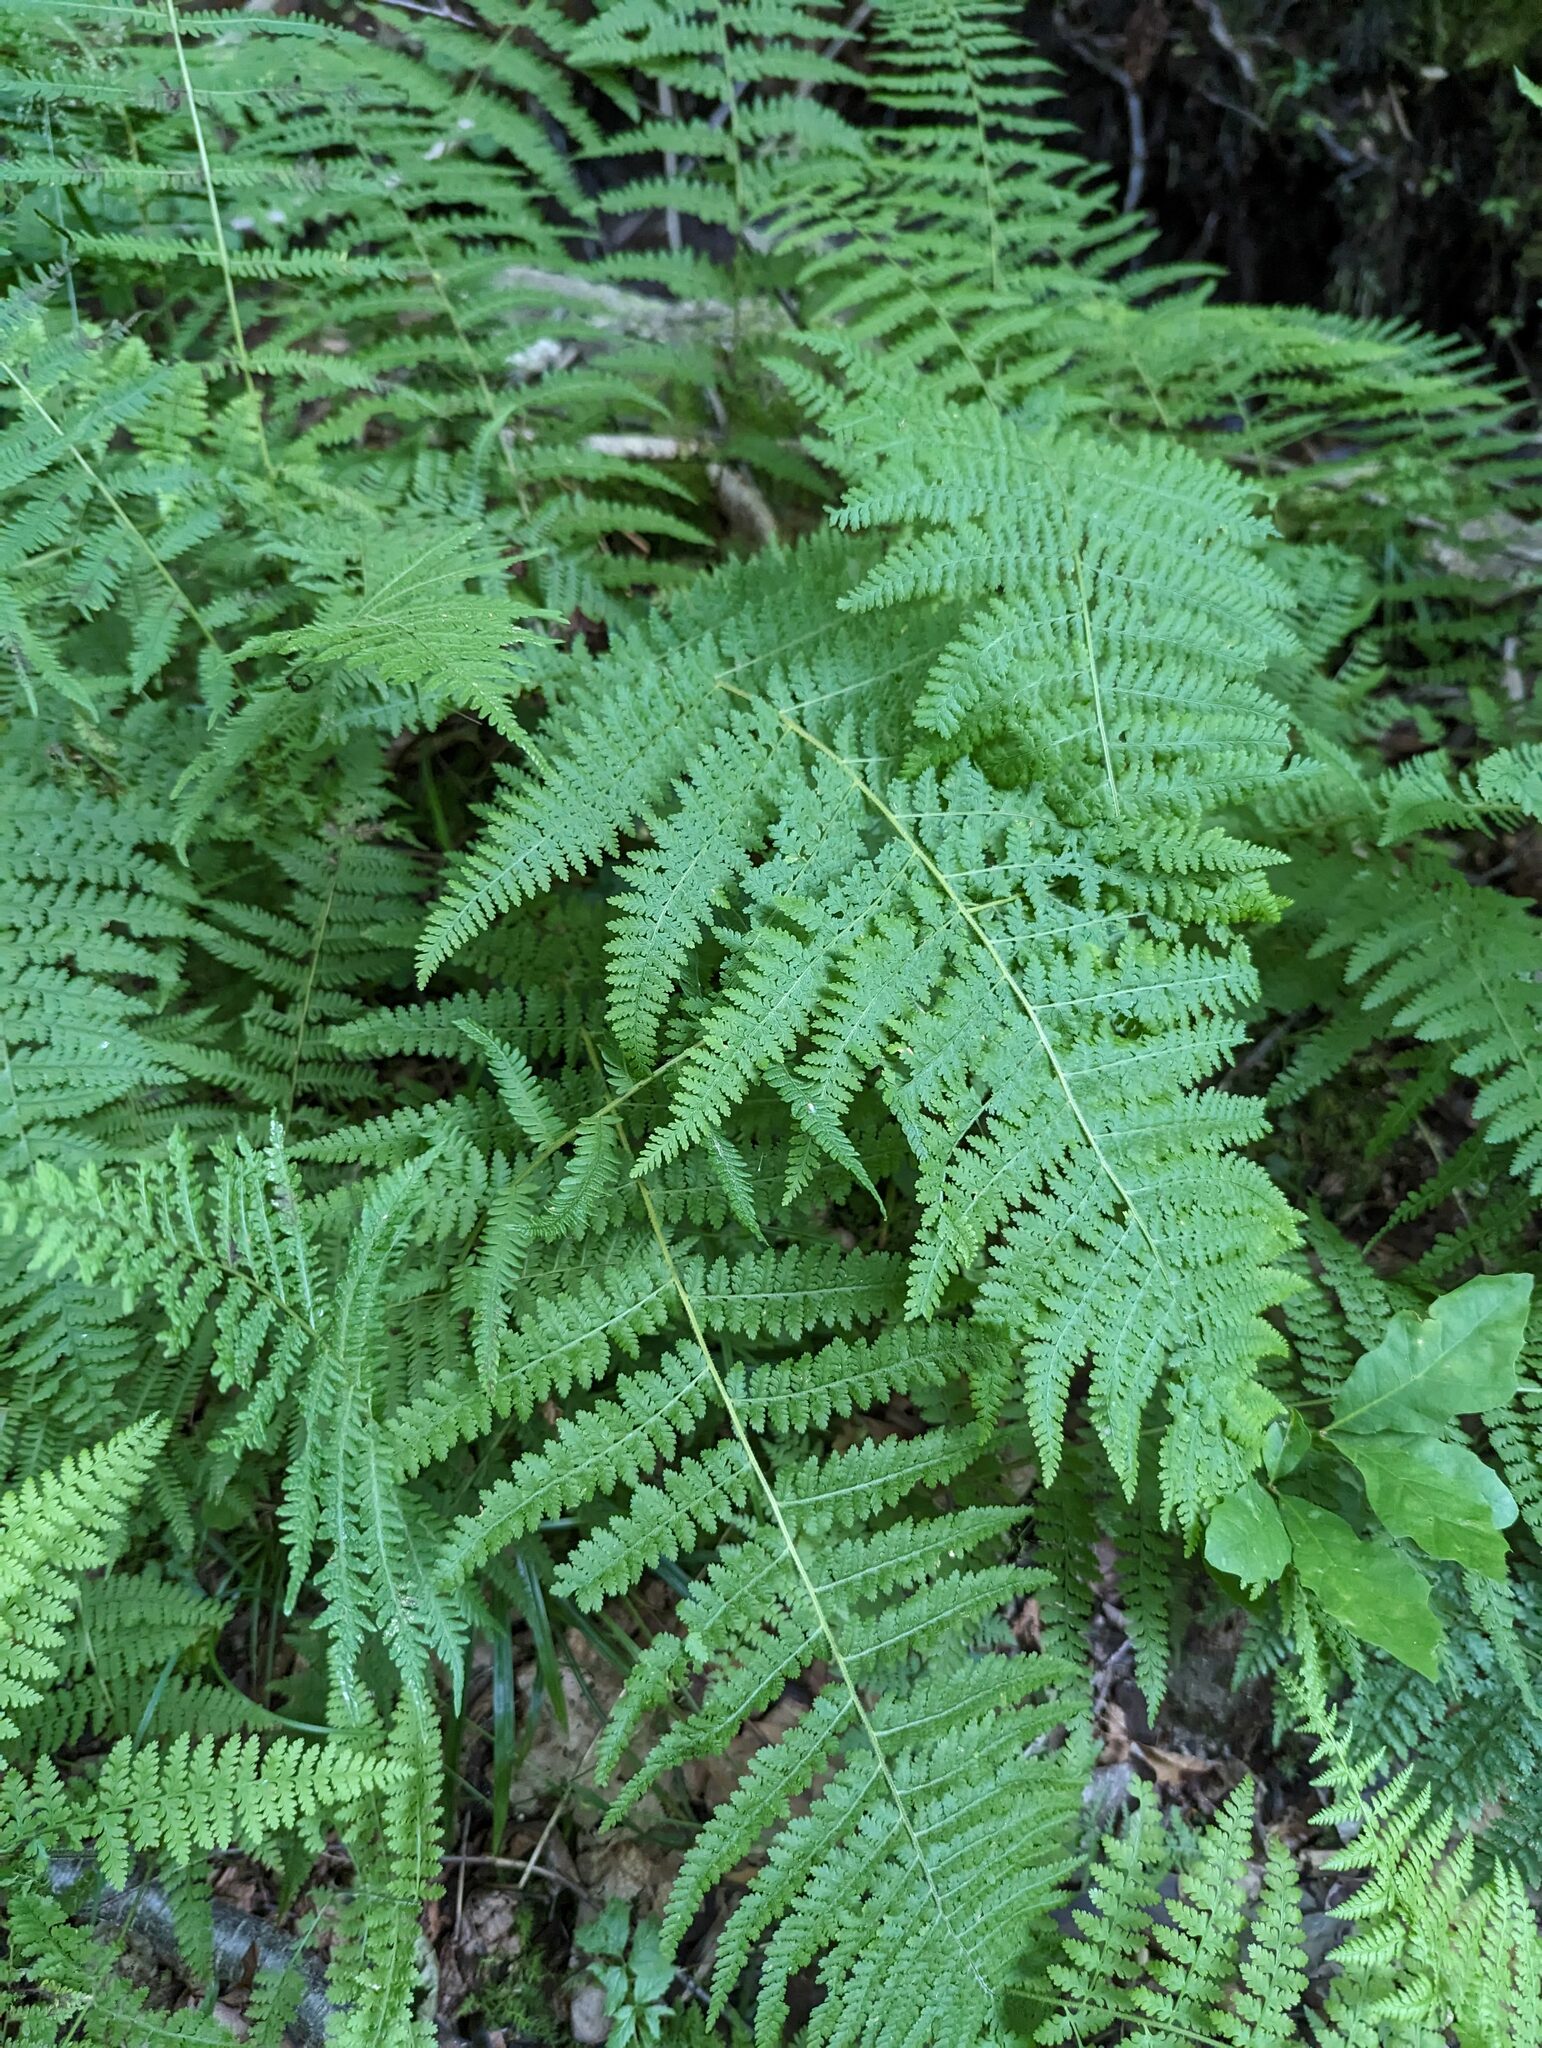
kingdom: Plantae
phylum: Tracheophyta
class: Polypodiopsida
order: Polypodiales
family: Dennstaedtiaceae
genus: Sitobolium
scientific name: Sitobolium punctilobum
